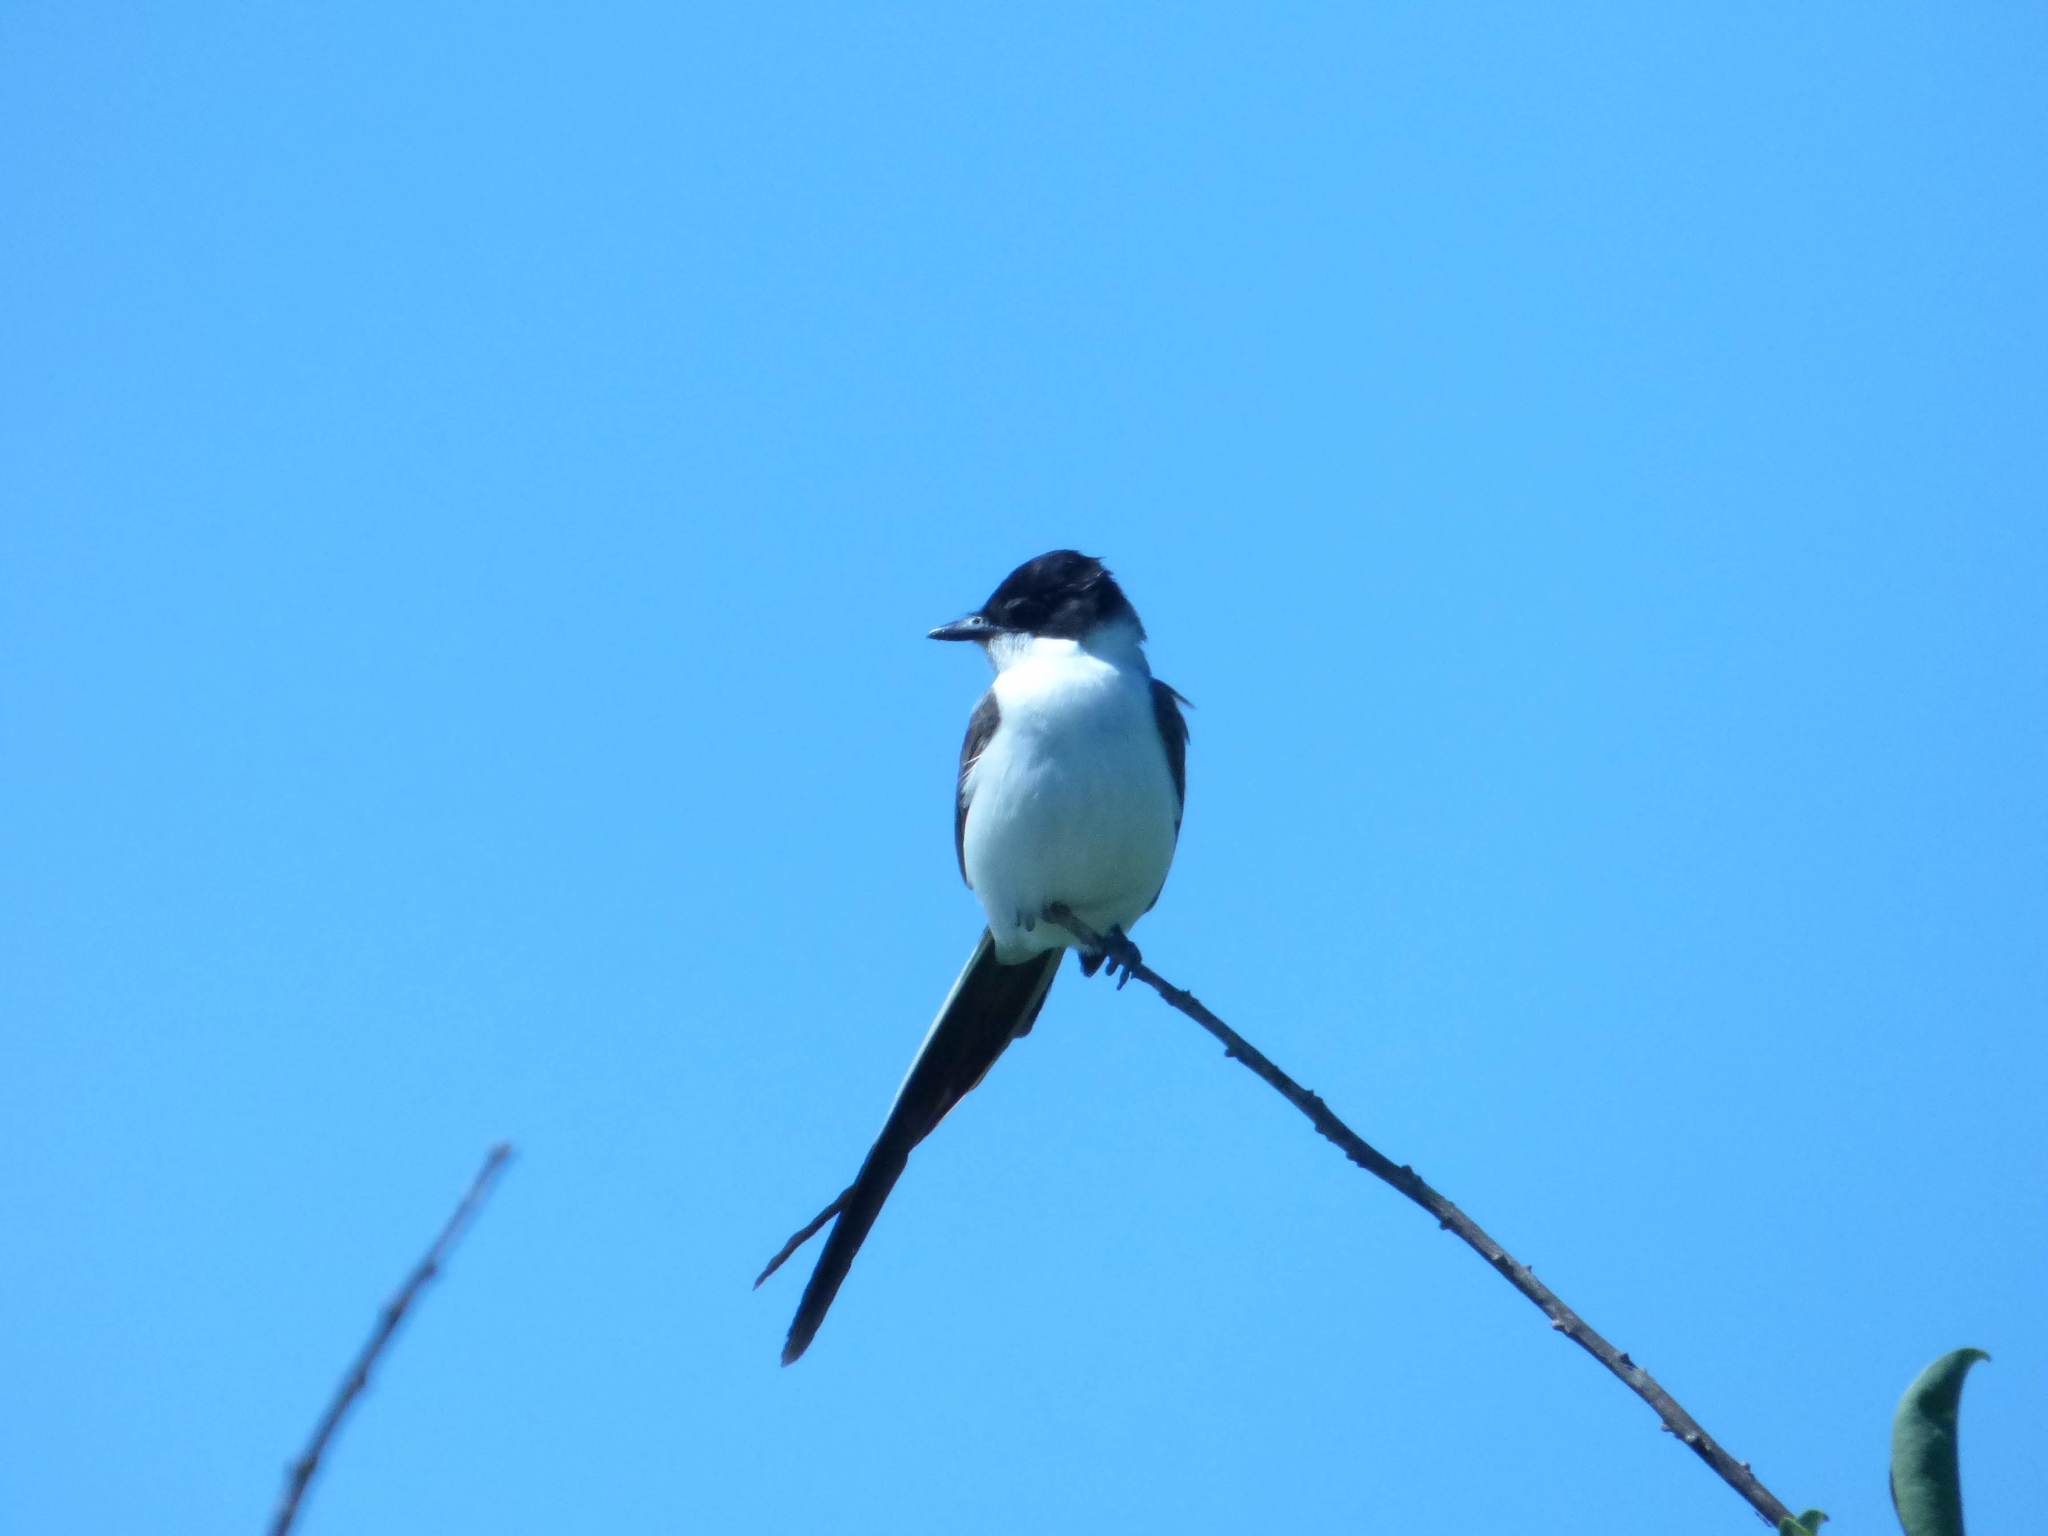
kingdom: Animalia
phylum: Chordata
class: Aves
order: Passeriformes
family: Tyrannidae
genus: Tyrannus
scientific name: Tyrannus savana
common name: Fork-tailed flycatcher
